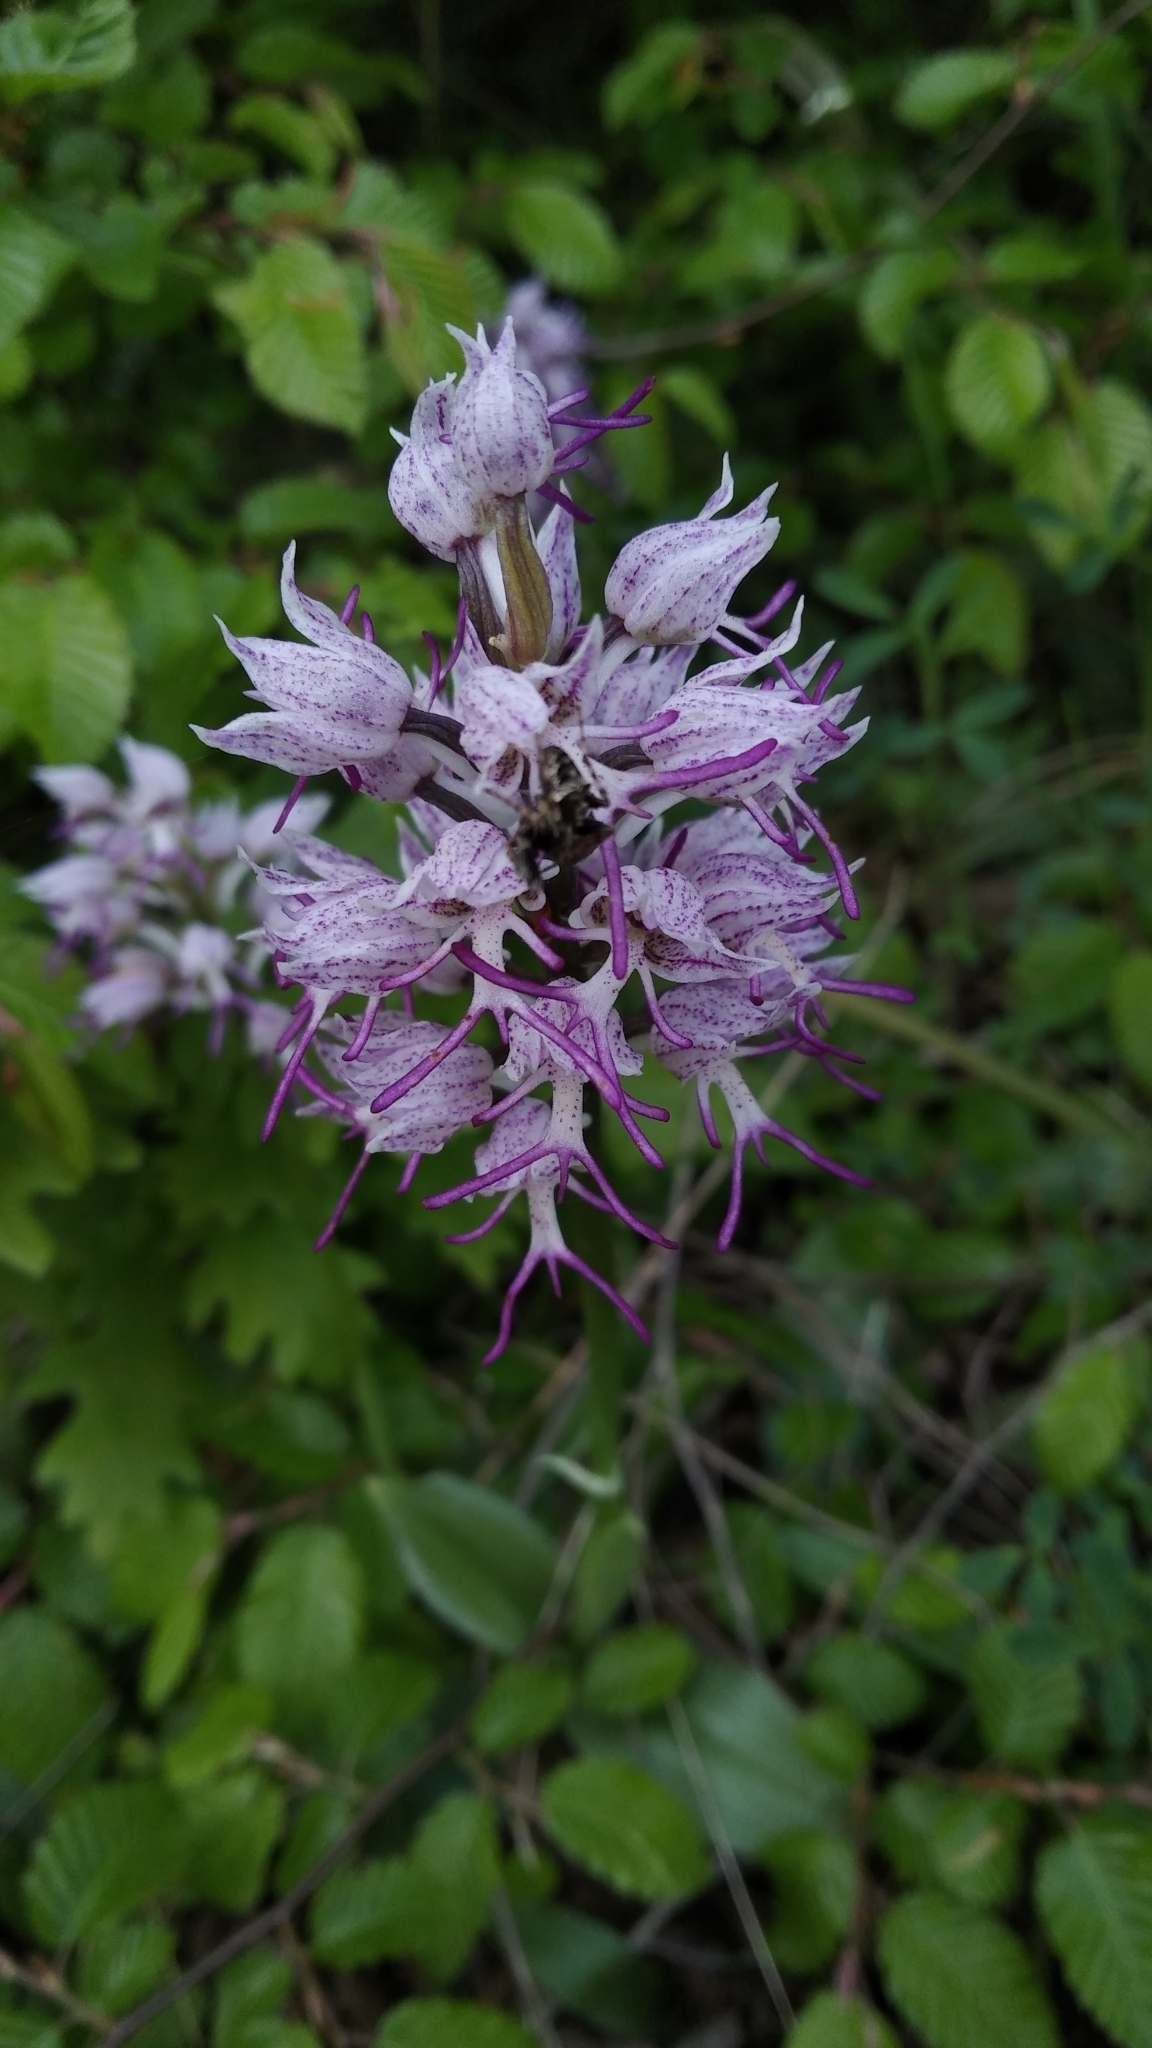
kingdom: Plantae
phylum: Tracheophyta
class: Liliopsida
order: Asparagales
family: Orchidaceae
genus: Orchis
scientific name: Orchis simia
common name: Monkey orchid
